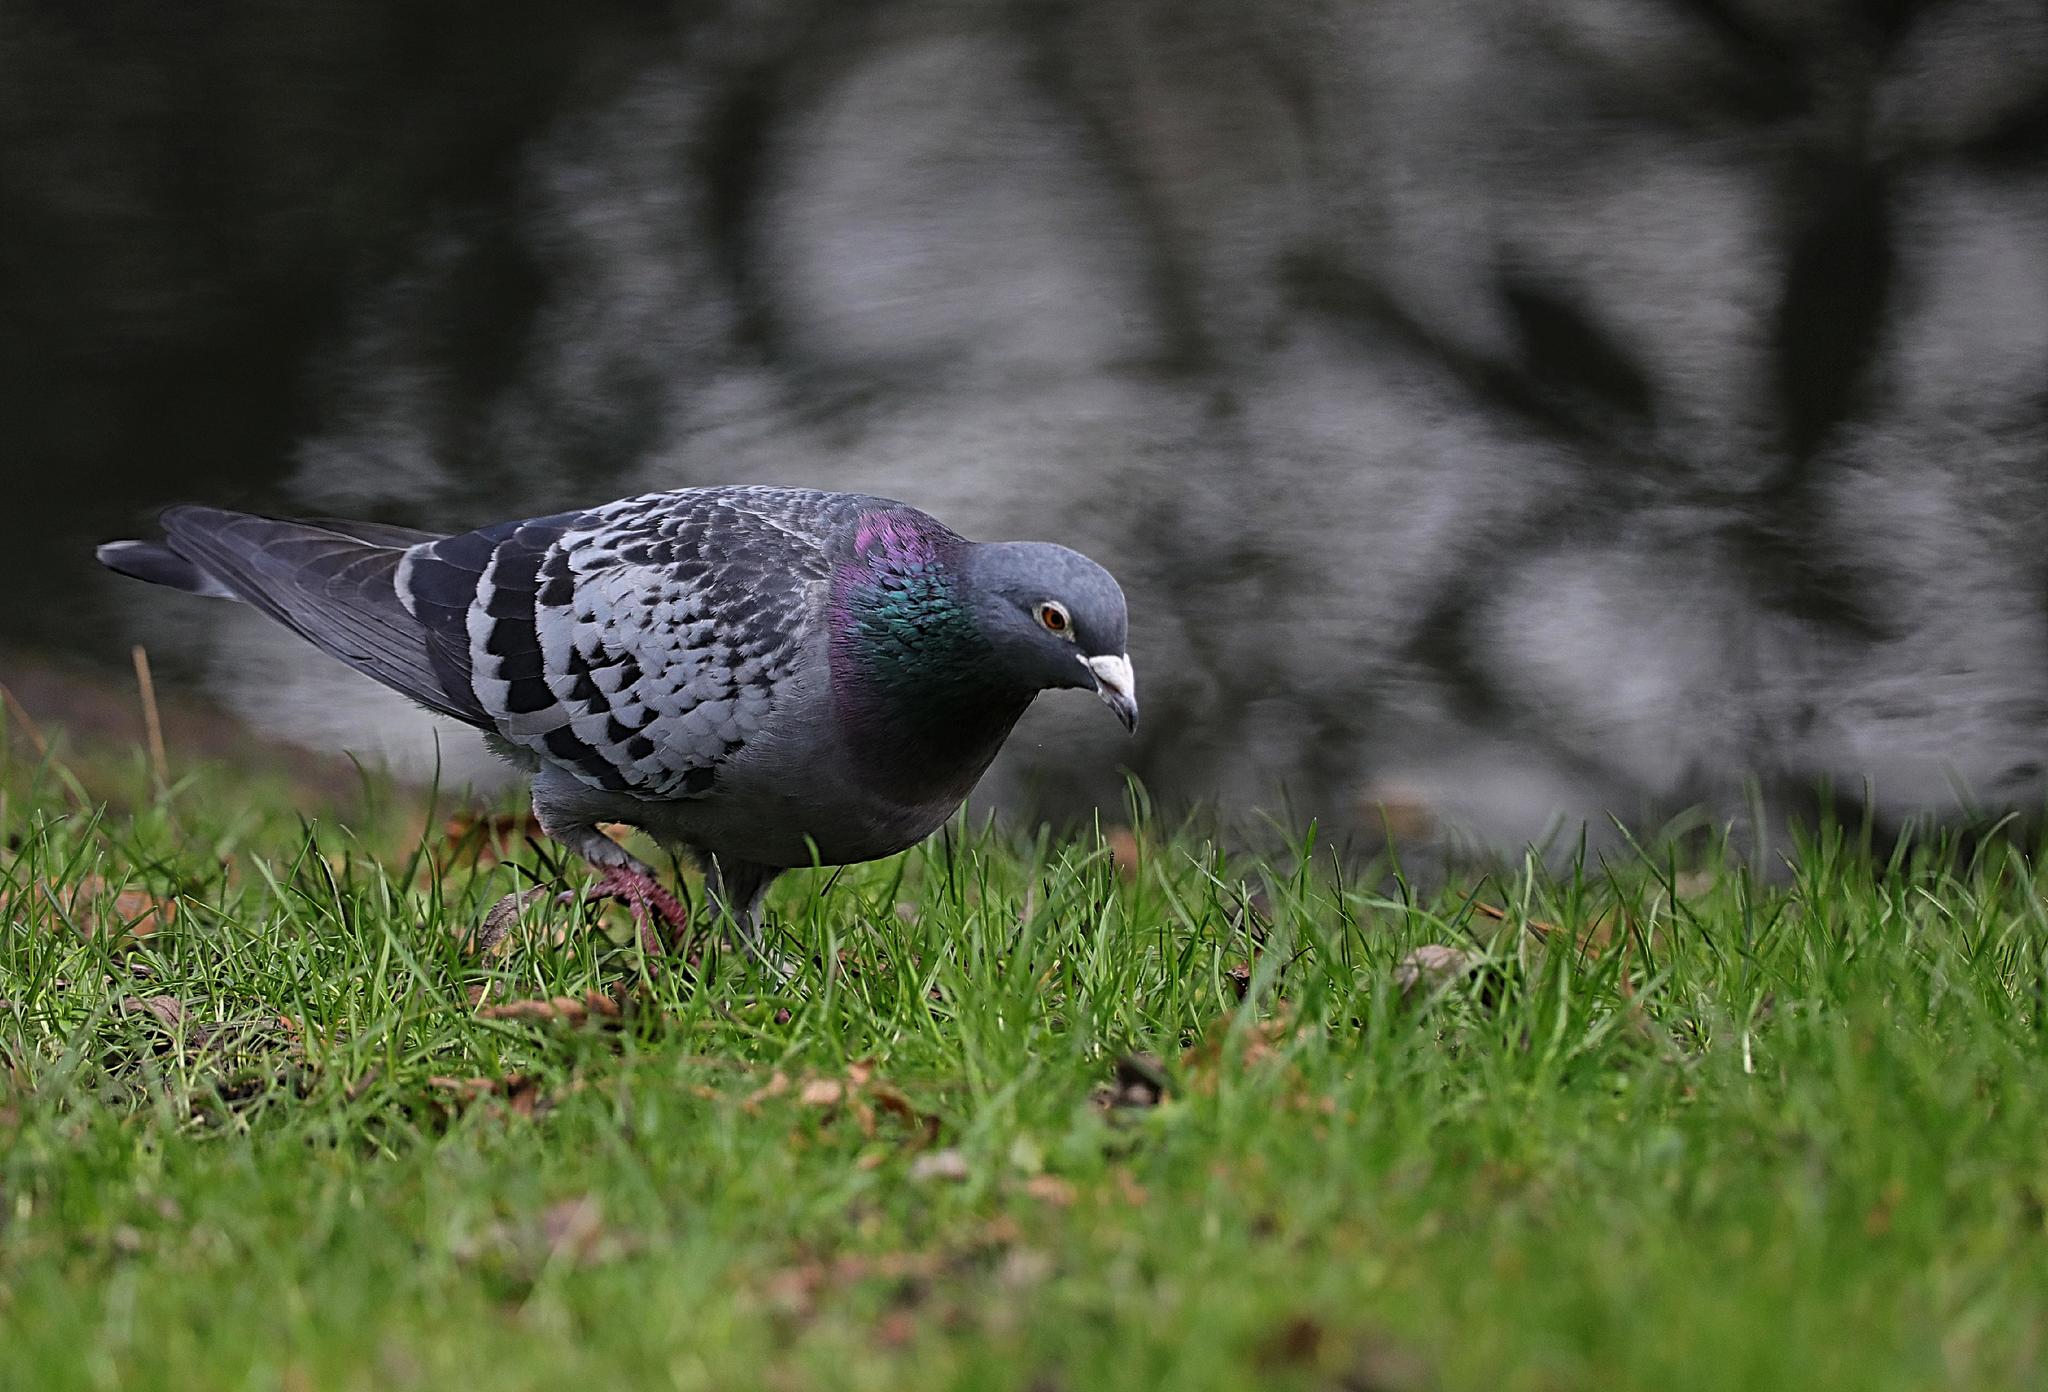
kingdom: Animalia
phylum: Chordata
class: Aves
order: Columbiformes
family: Columbidae
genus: Columba
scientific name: Columba livia
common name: Rock pigeon
